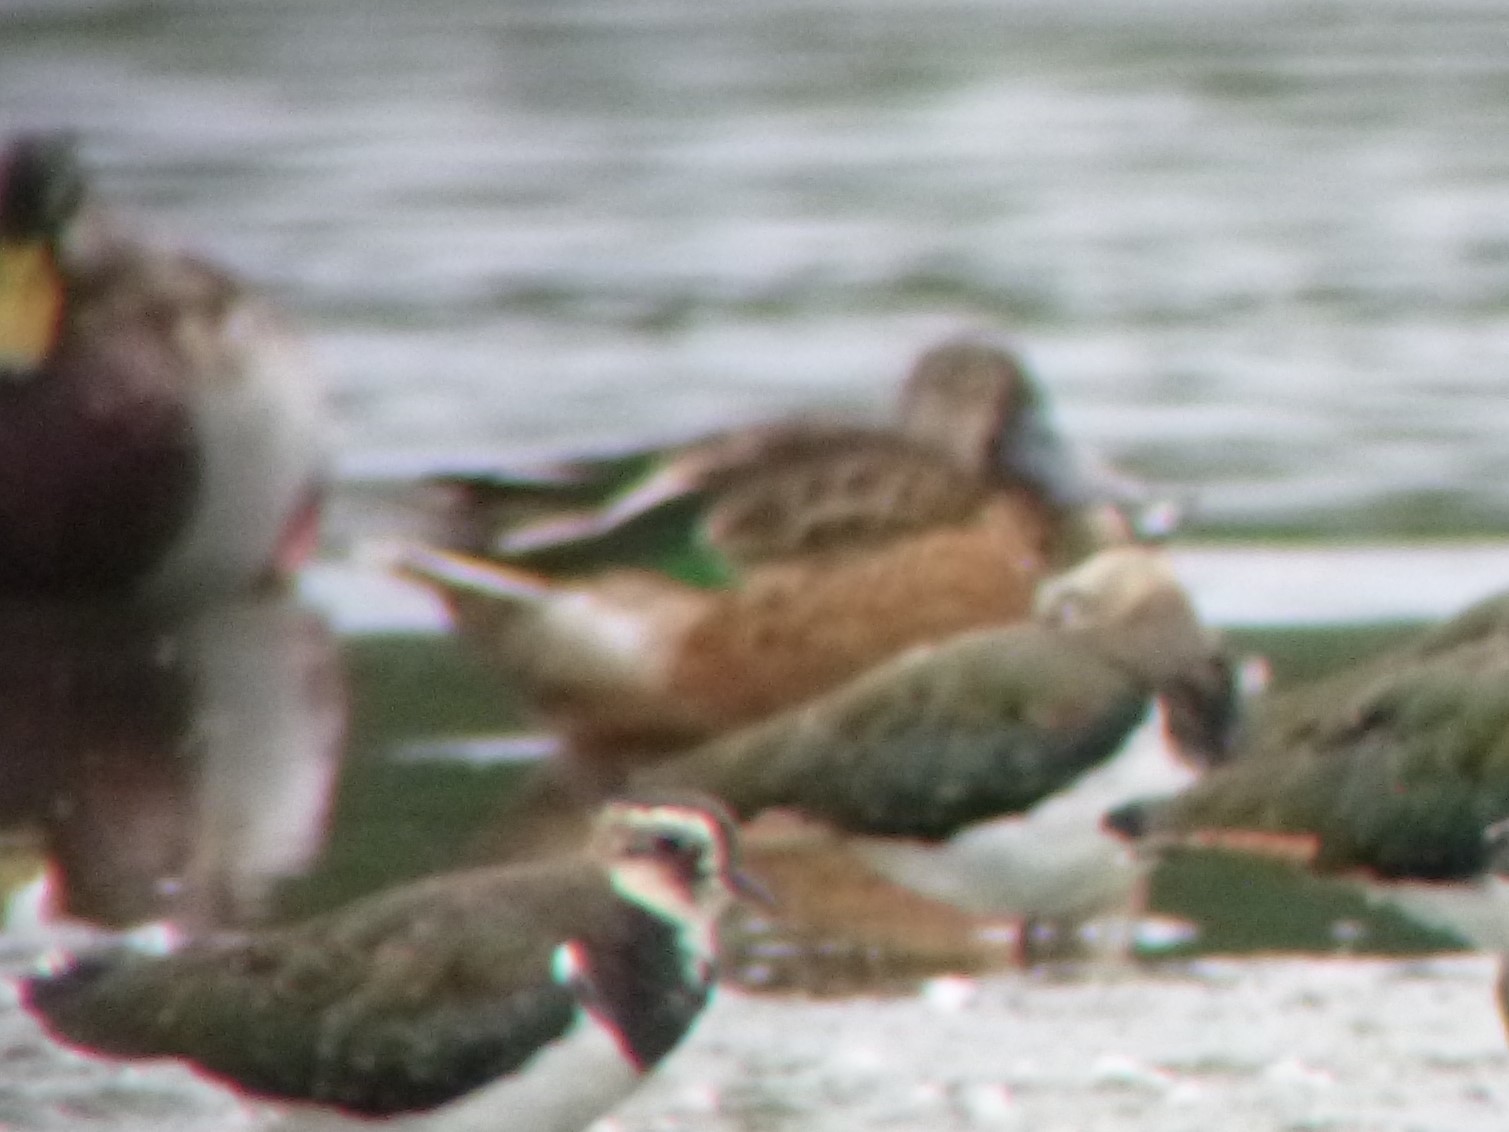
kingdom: Animalia
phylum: Chordata
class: Aves
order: Anseriformes
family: Anatidae
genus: Spatula
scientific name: Spatula clypeata
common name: Northern shoveler
